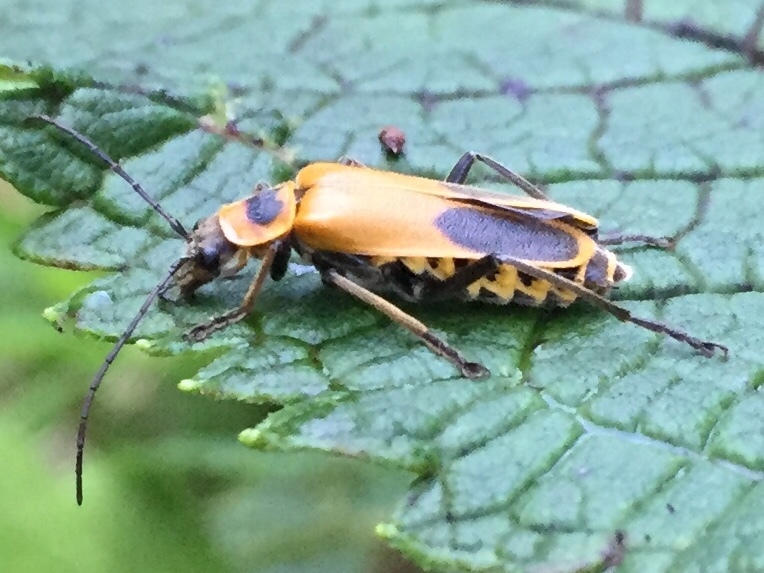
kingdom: Animalia
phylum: Arthropoda
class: Insecta
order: Coleoptera
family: Cantharidae
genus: Chauliognathus
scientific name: Chauliognathus pensylvanicus
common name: Goldenrod soldier beetle
